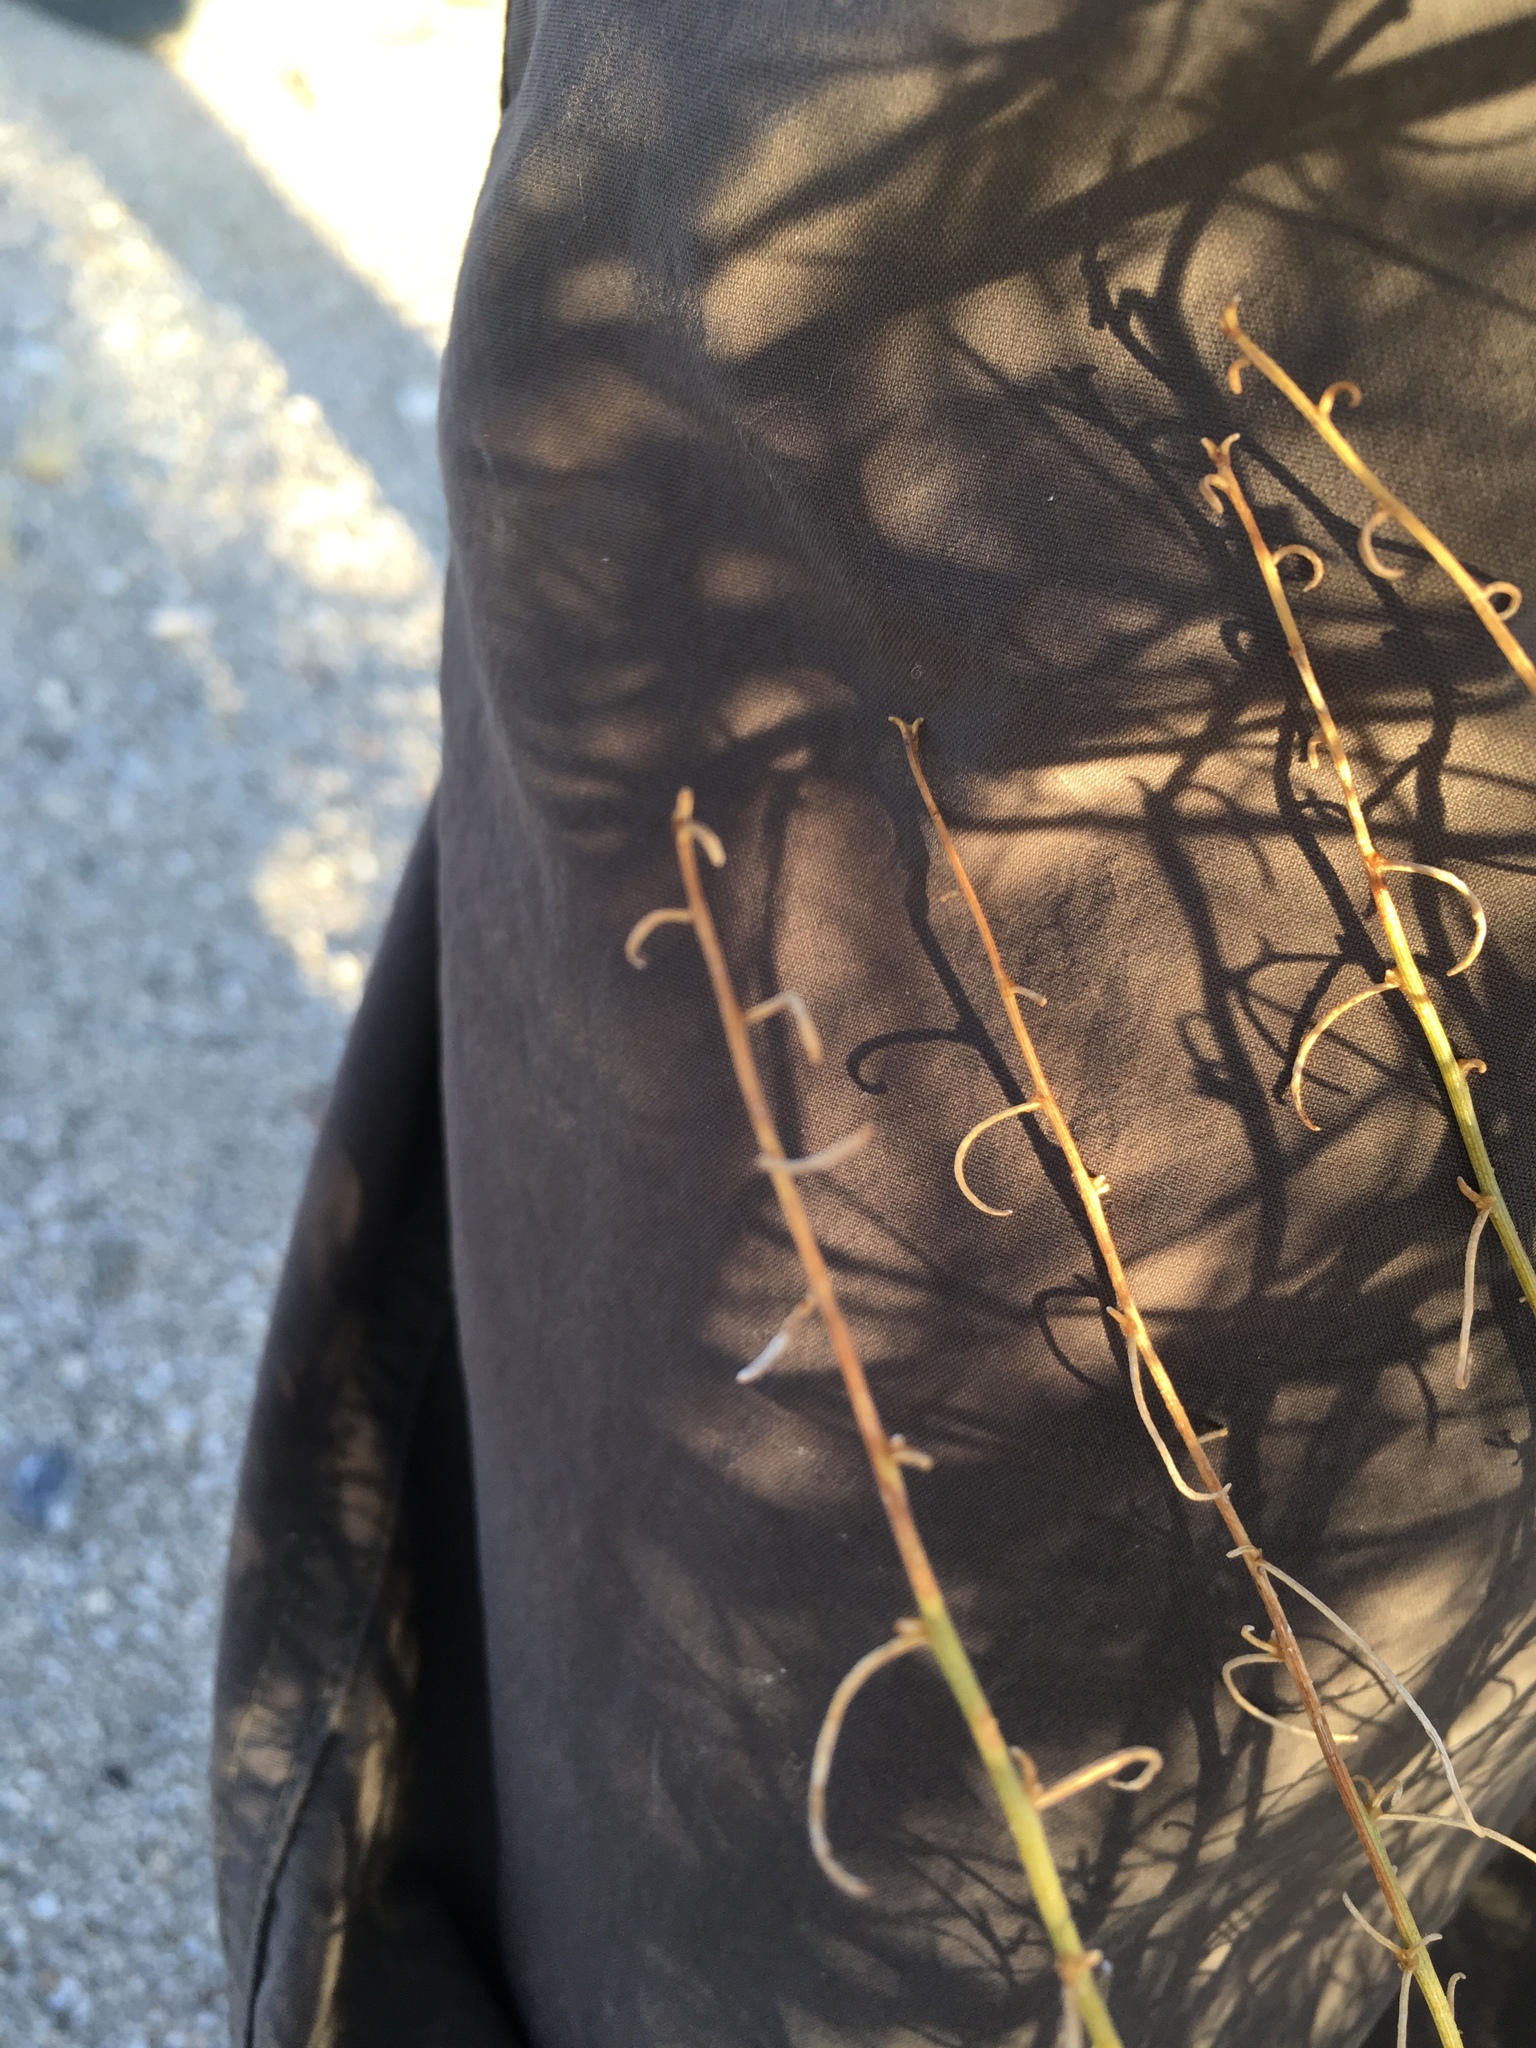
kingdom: Plantae
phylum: Tracheophyta
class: Magnoliopsida
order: Asterales
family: Asteraceae
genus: Ambrosia
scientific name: Ambrosia salsola
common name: Burrobrush
